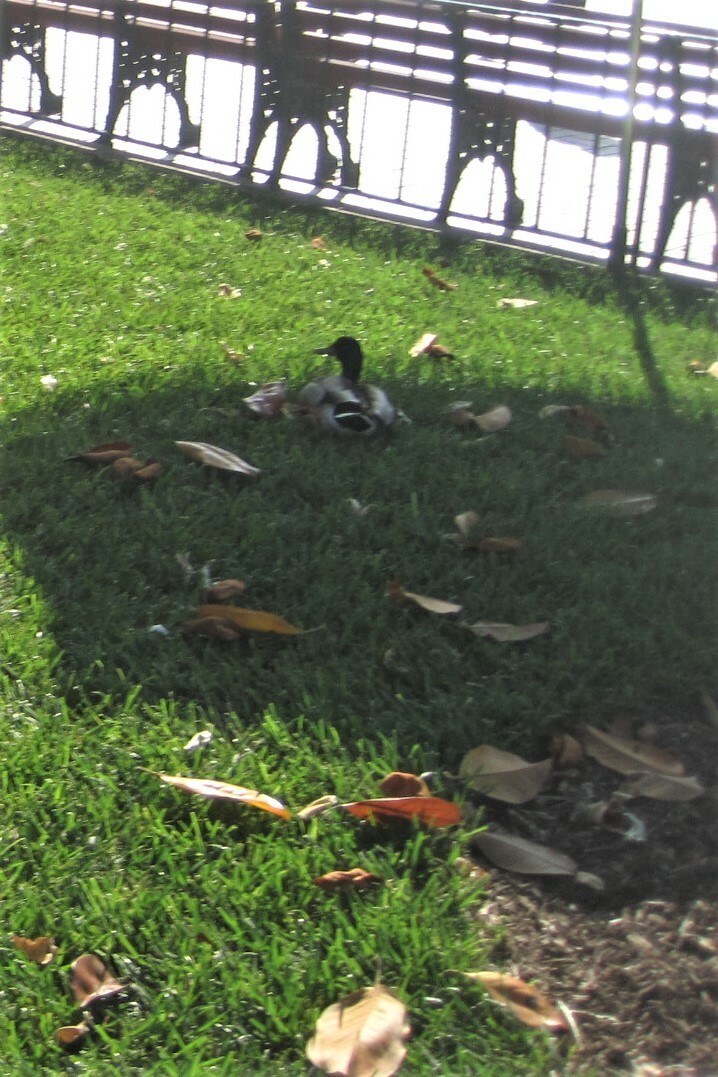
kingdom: Animalia
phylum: Chordata
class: Aves
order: Anseriformes
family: Anatidae
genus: Anas
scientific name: Anas platyrhynchos
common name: Mallard
